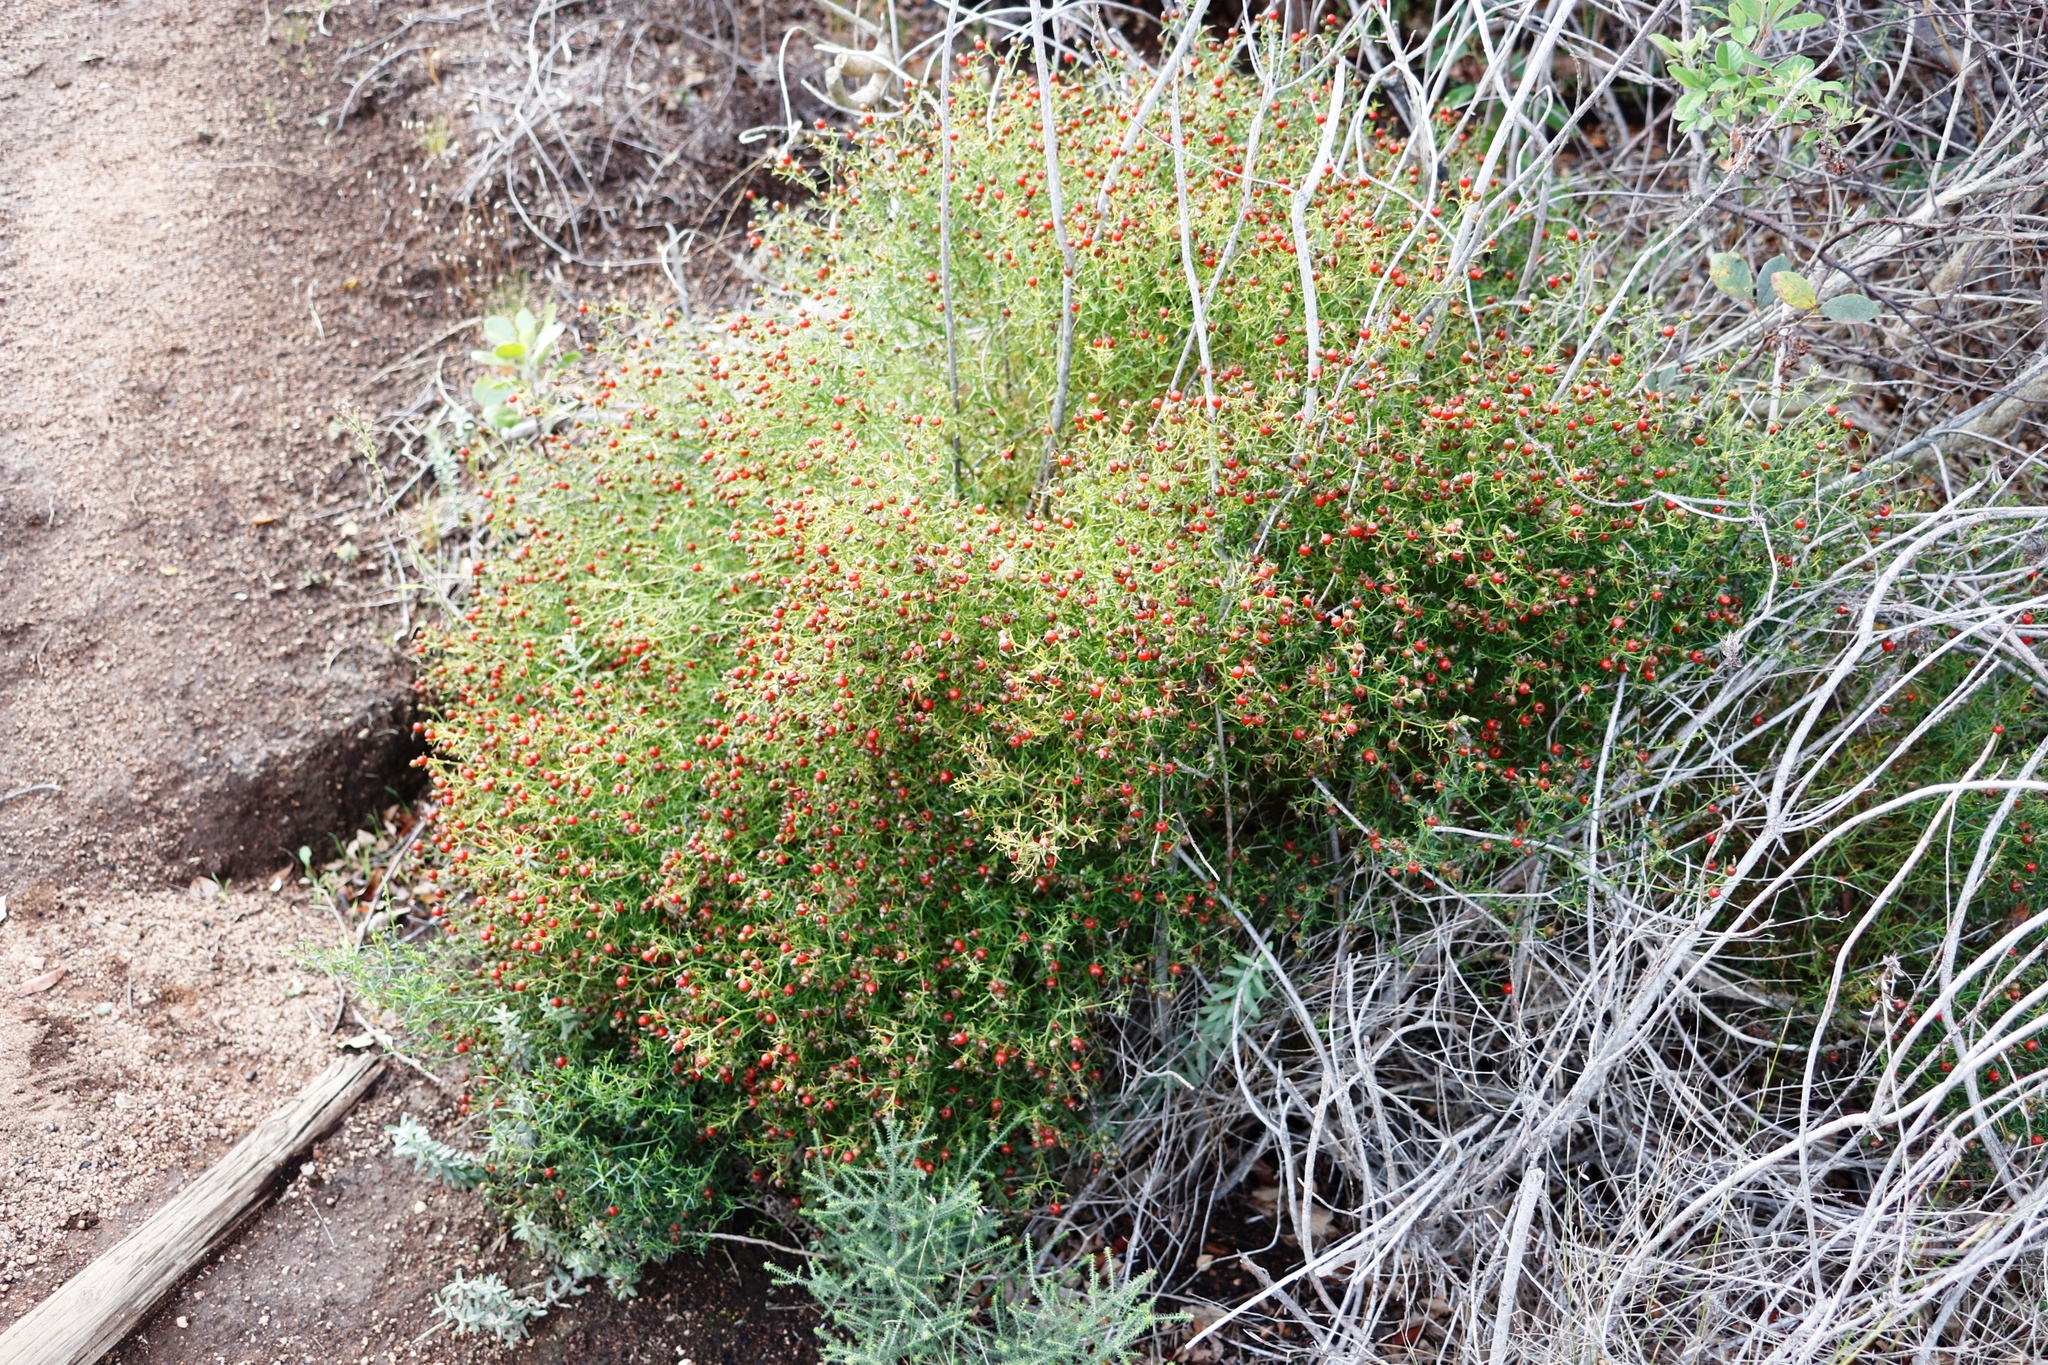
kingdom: Plantae
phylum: Tracheophyta
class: Magnoliopsida
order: Gentianales
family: Gentianaceae
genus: Chironia
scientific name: Chironia baccifera
